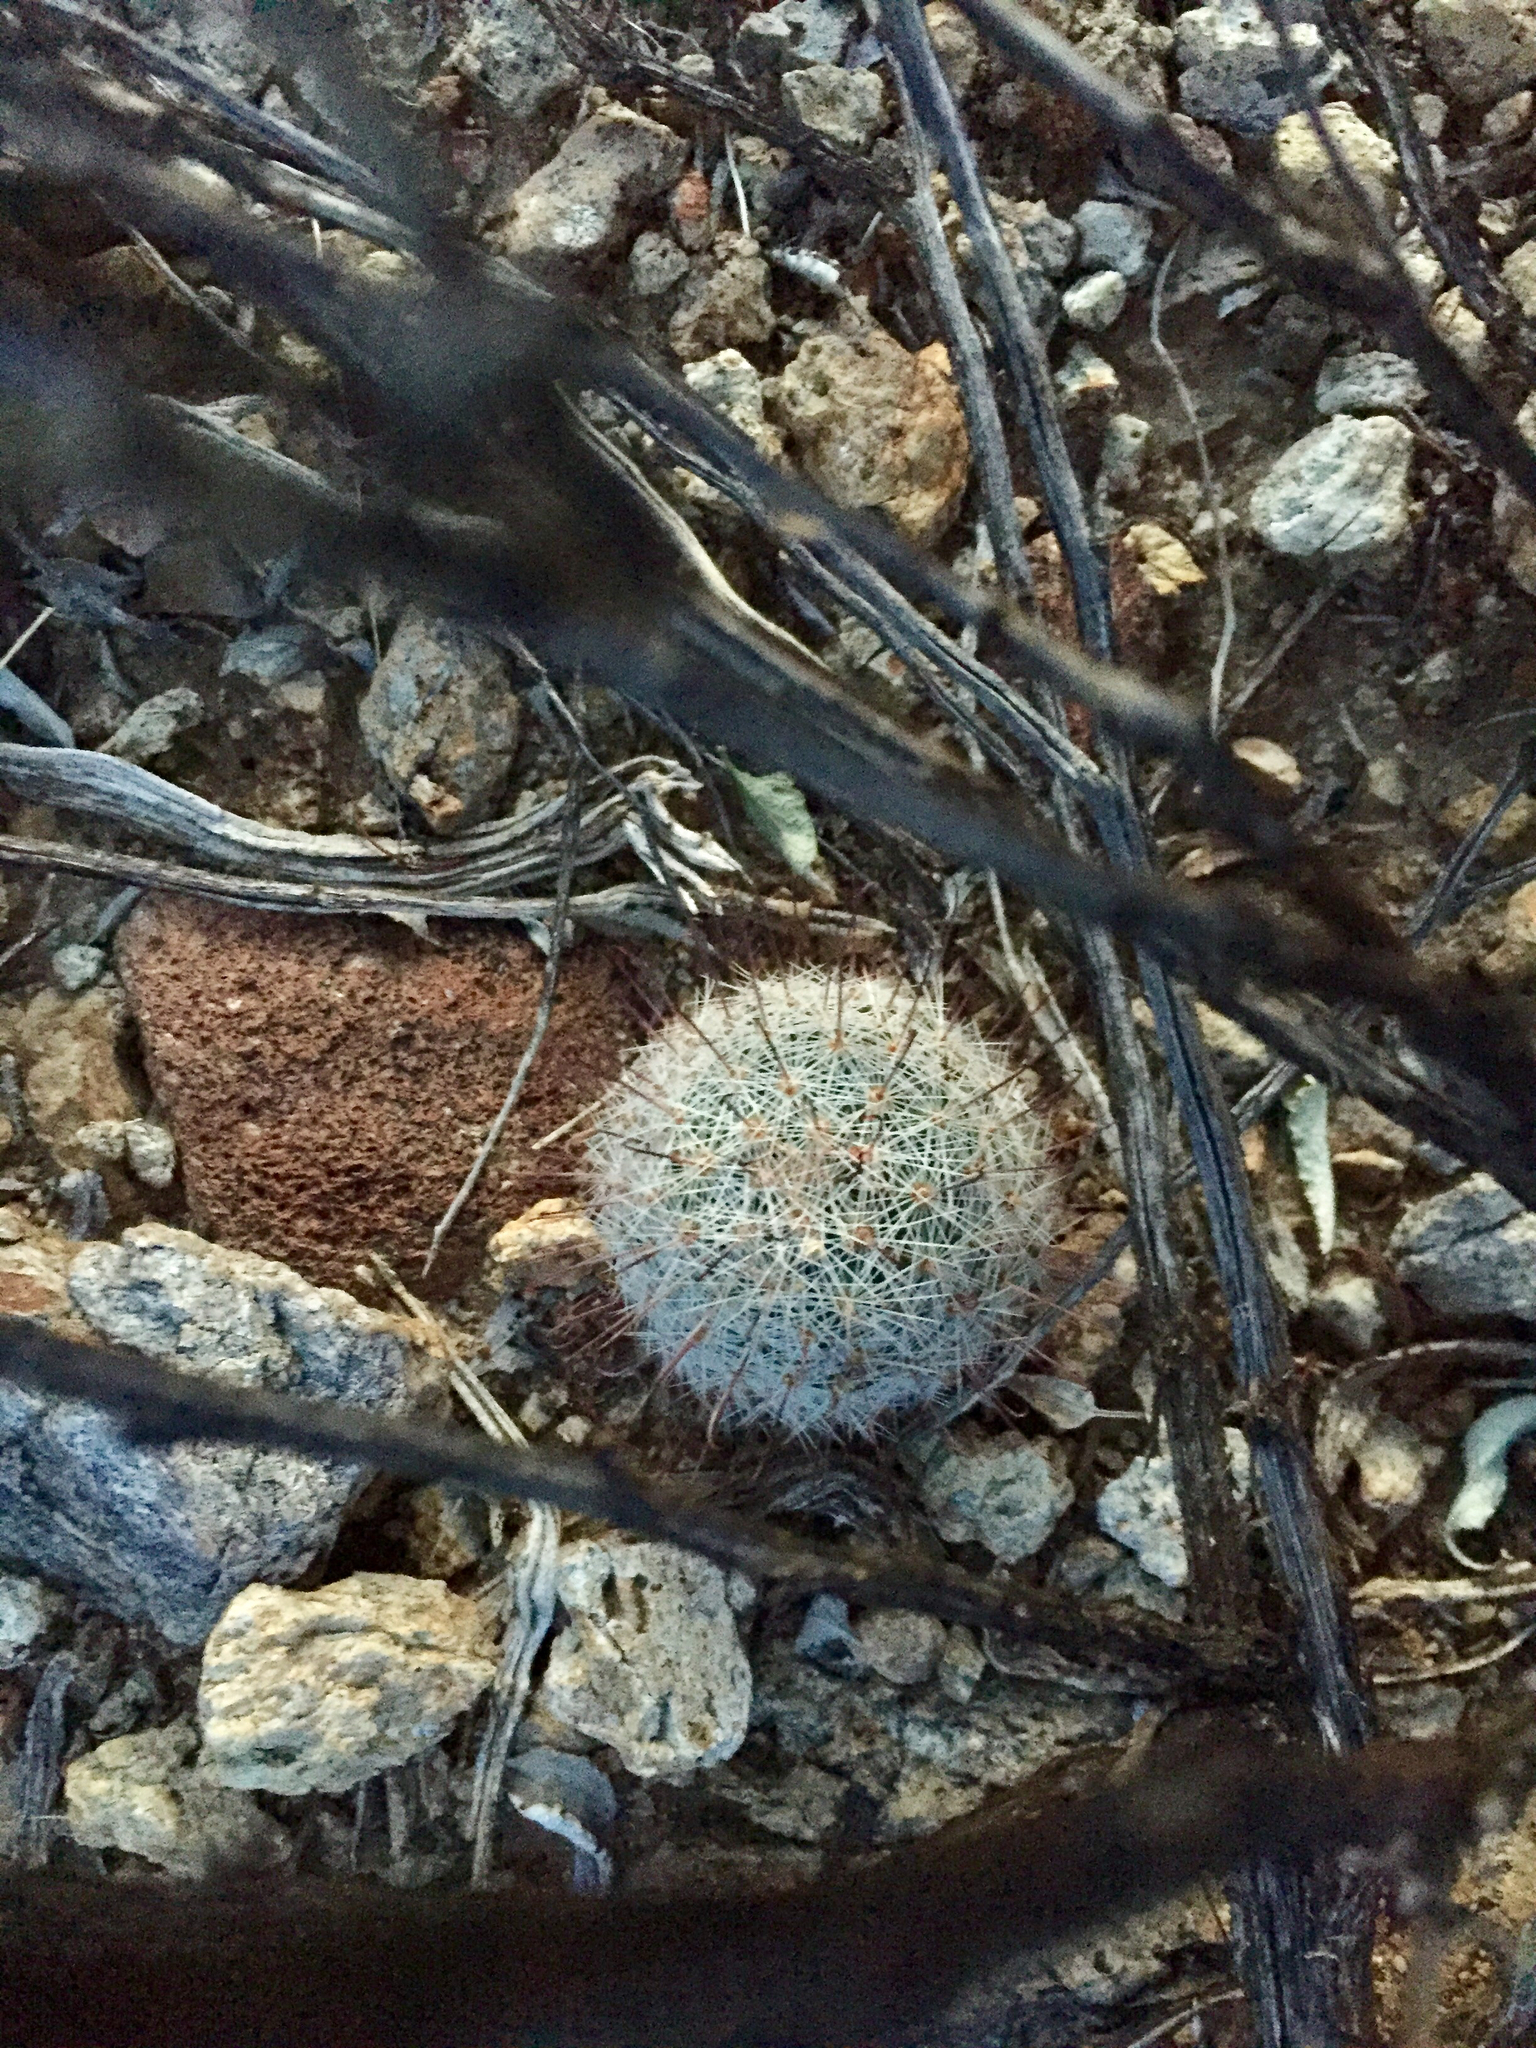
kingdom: Plantae
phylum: Tracheophyta
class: Magnoliopsida
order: Caryophyllales
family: Cactaceae
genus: Cochemiea
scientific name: Cochemiea grahamii
